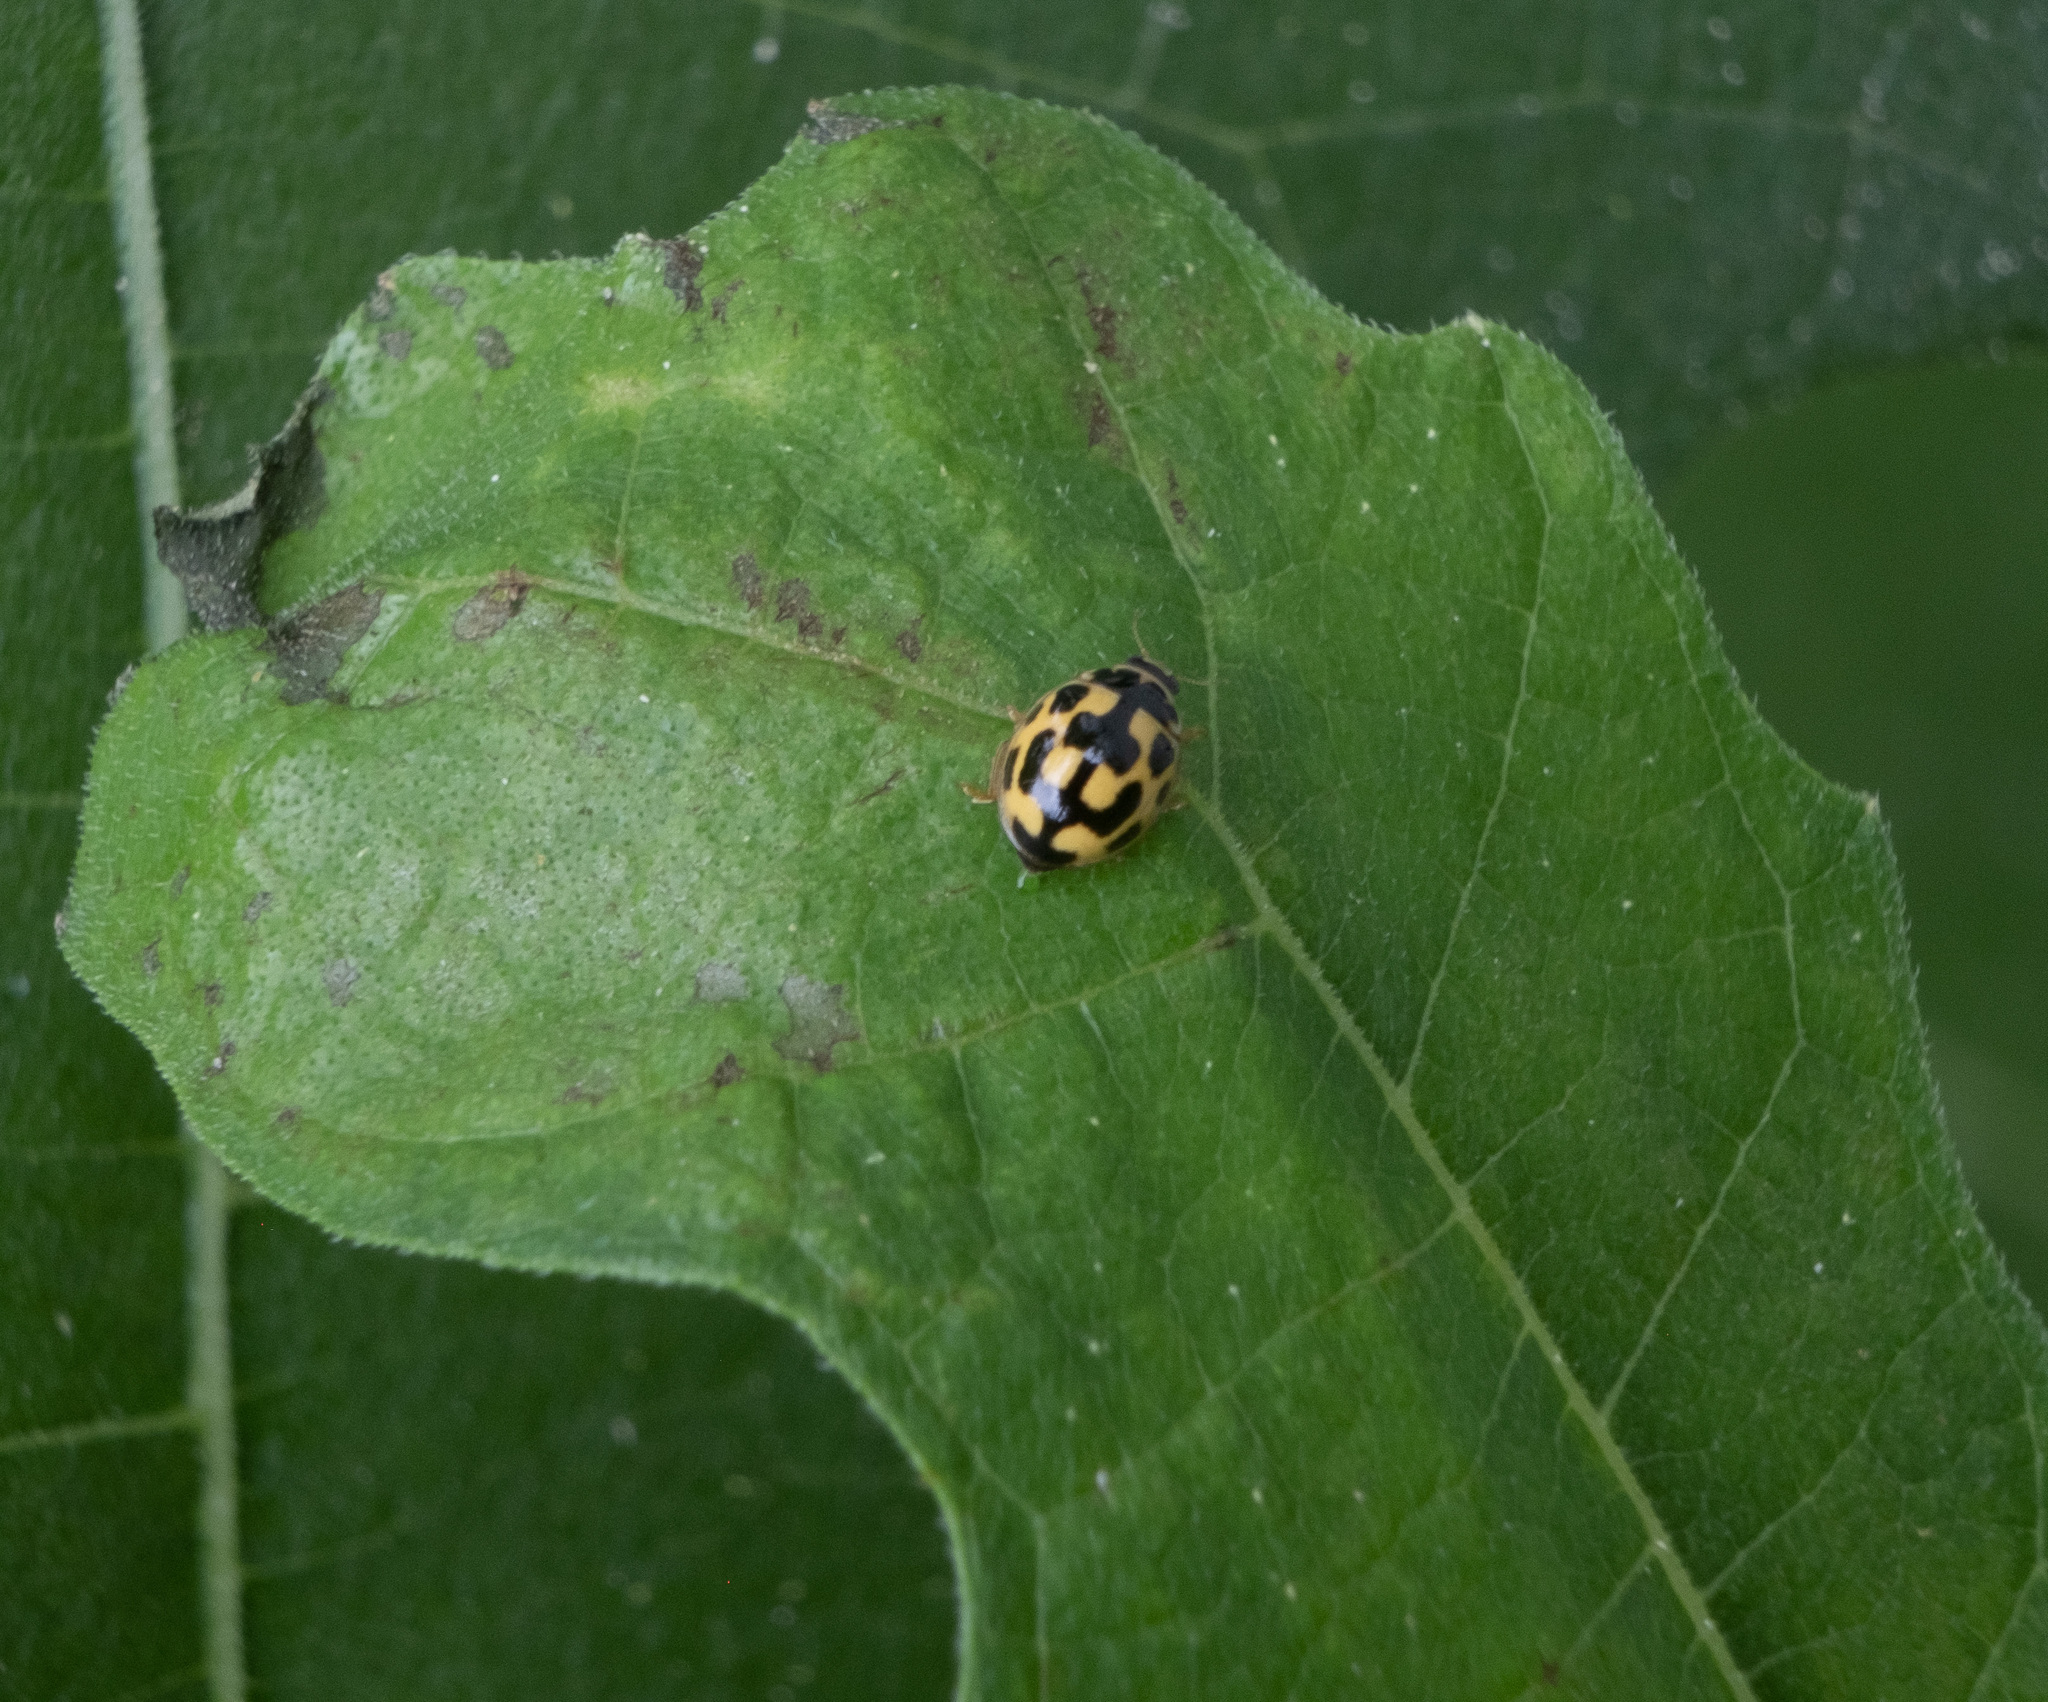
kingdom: Animalia
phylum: Arthropoda
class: Insecta
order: Coleoptera
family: Coccinellidae
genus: Propylaea
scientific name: Propylaea quatuordecimpunctata
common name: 14-spotted ladybird beetle
